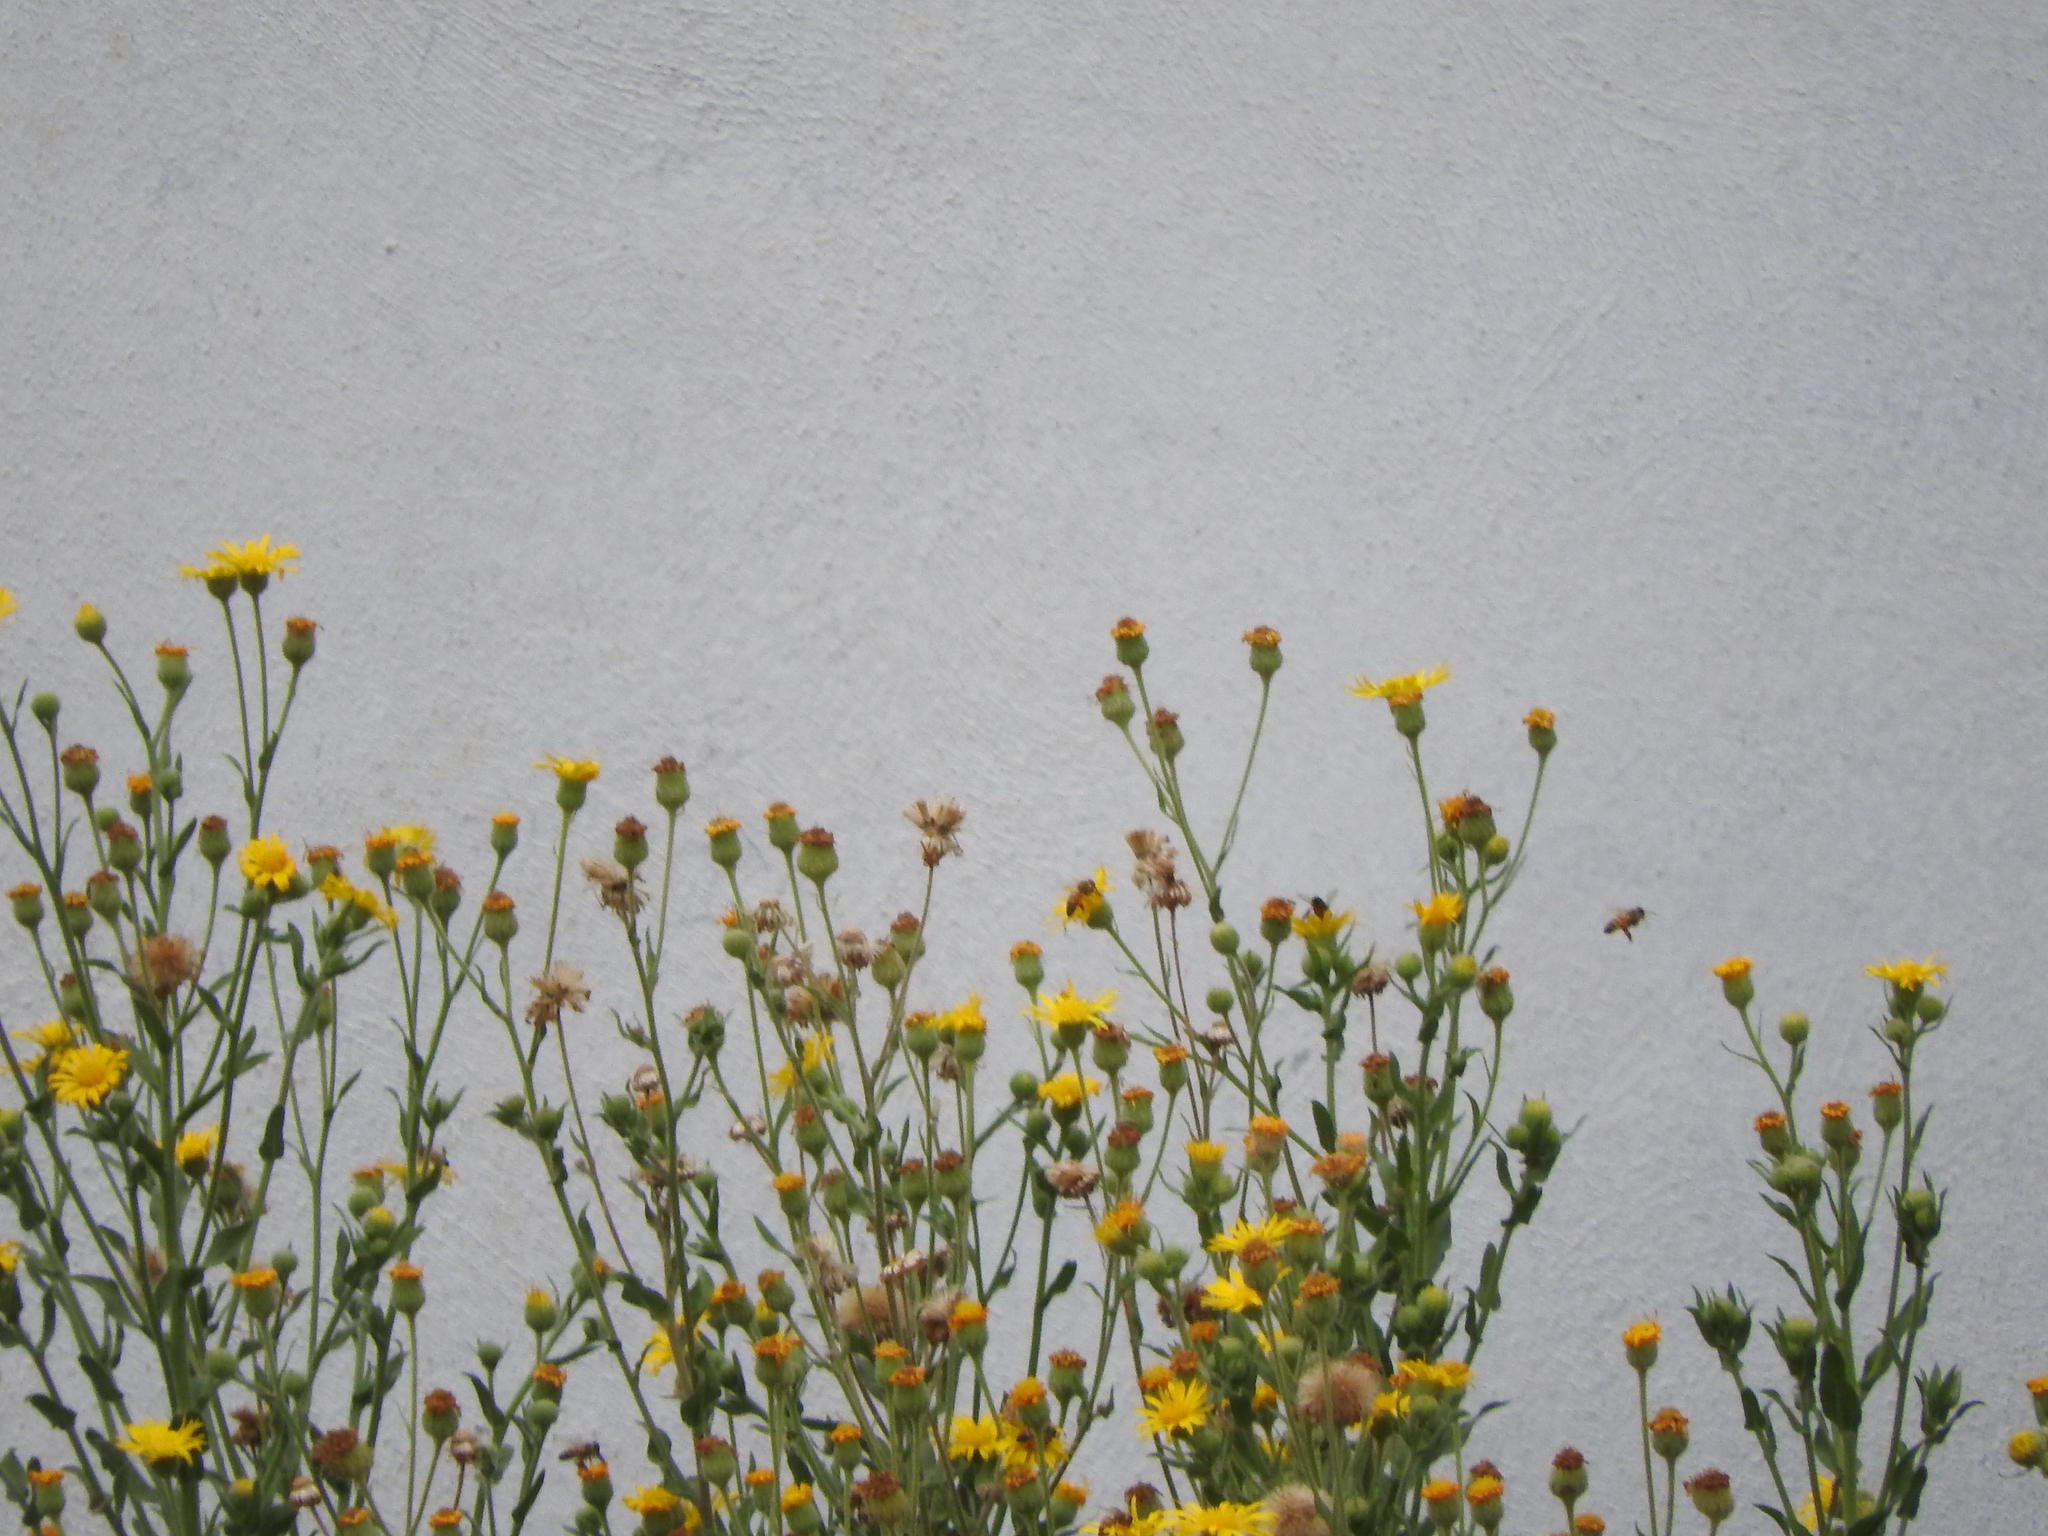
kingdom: Animalia
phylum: Arthropoda
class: Insecta
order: Hymenoptera
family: Apidae
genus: Apis
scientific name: Apis mellifera
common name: Honey bee
